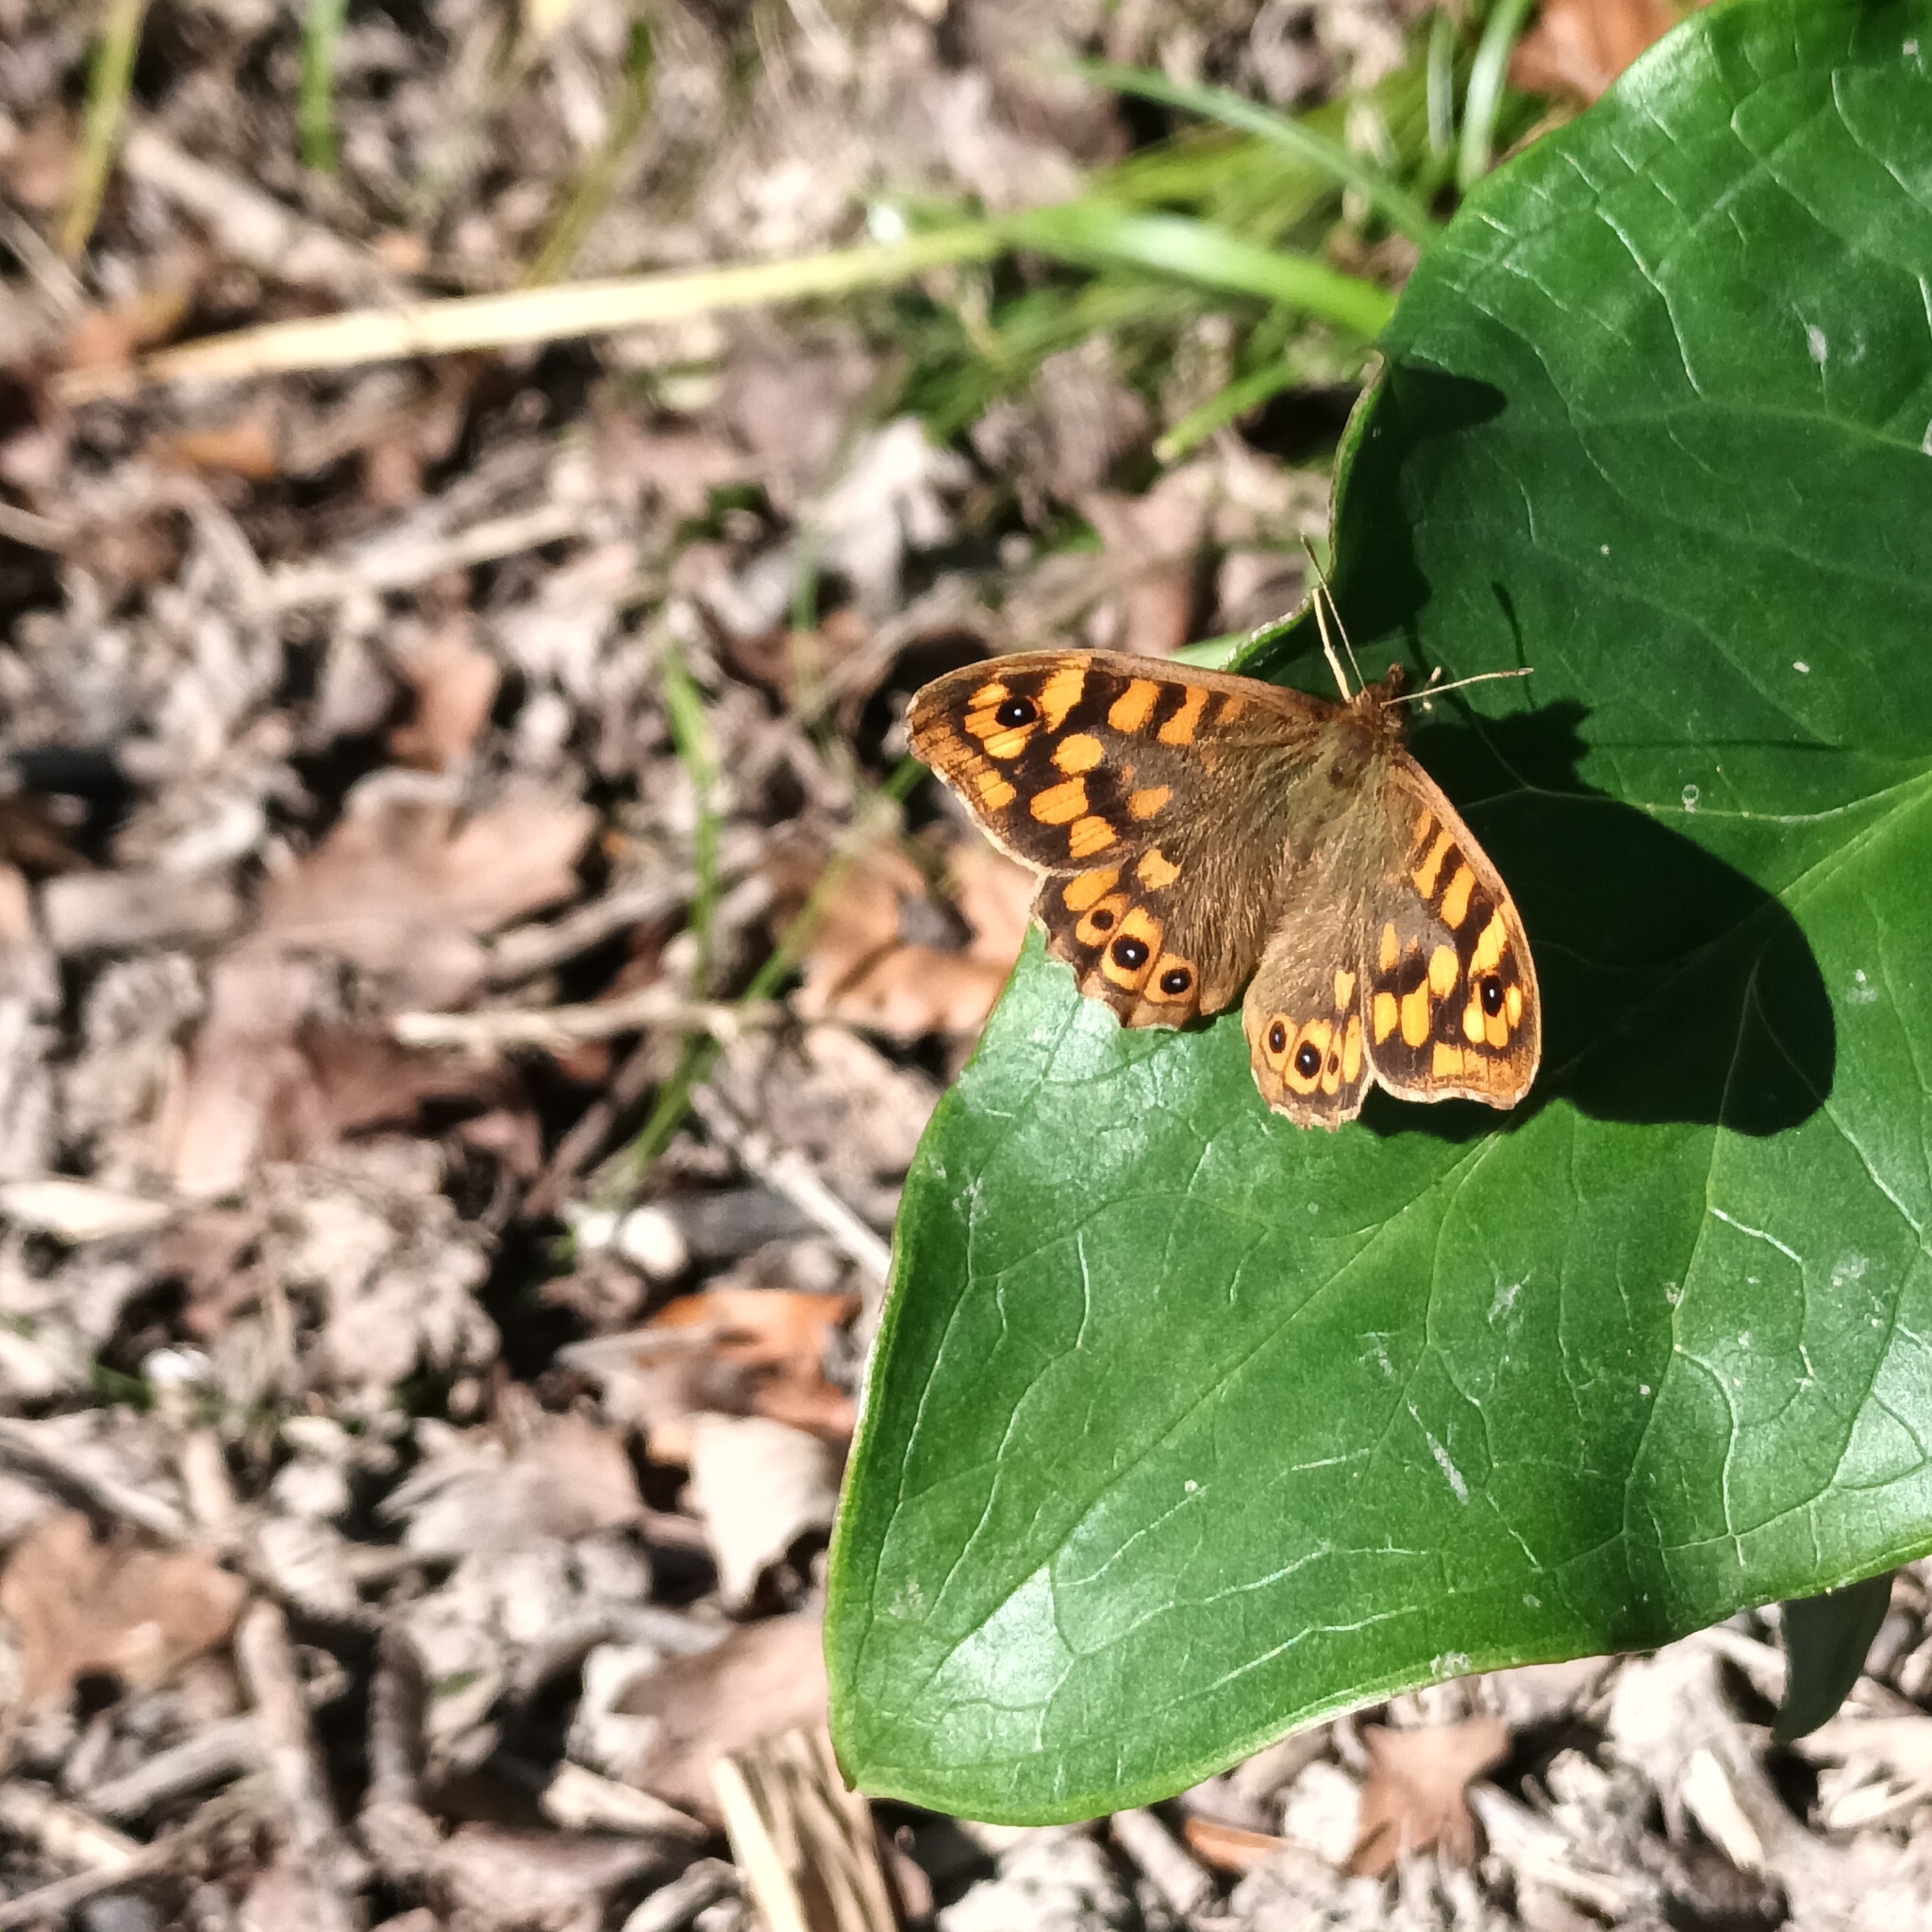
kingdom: Animalia
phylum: Arthropoda
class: Insecta
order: Lepidoptera
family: Nymphalidae
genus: Pararge
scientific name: Pararge aegeria
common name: Speckled wood
